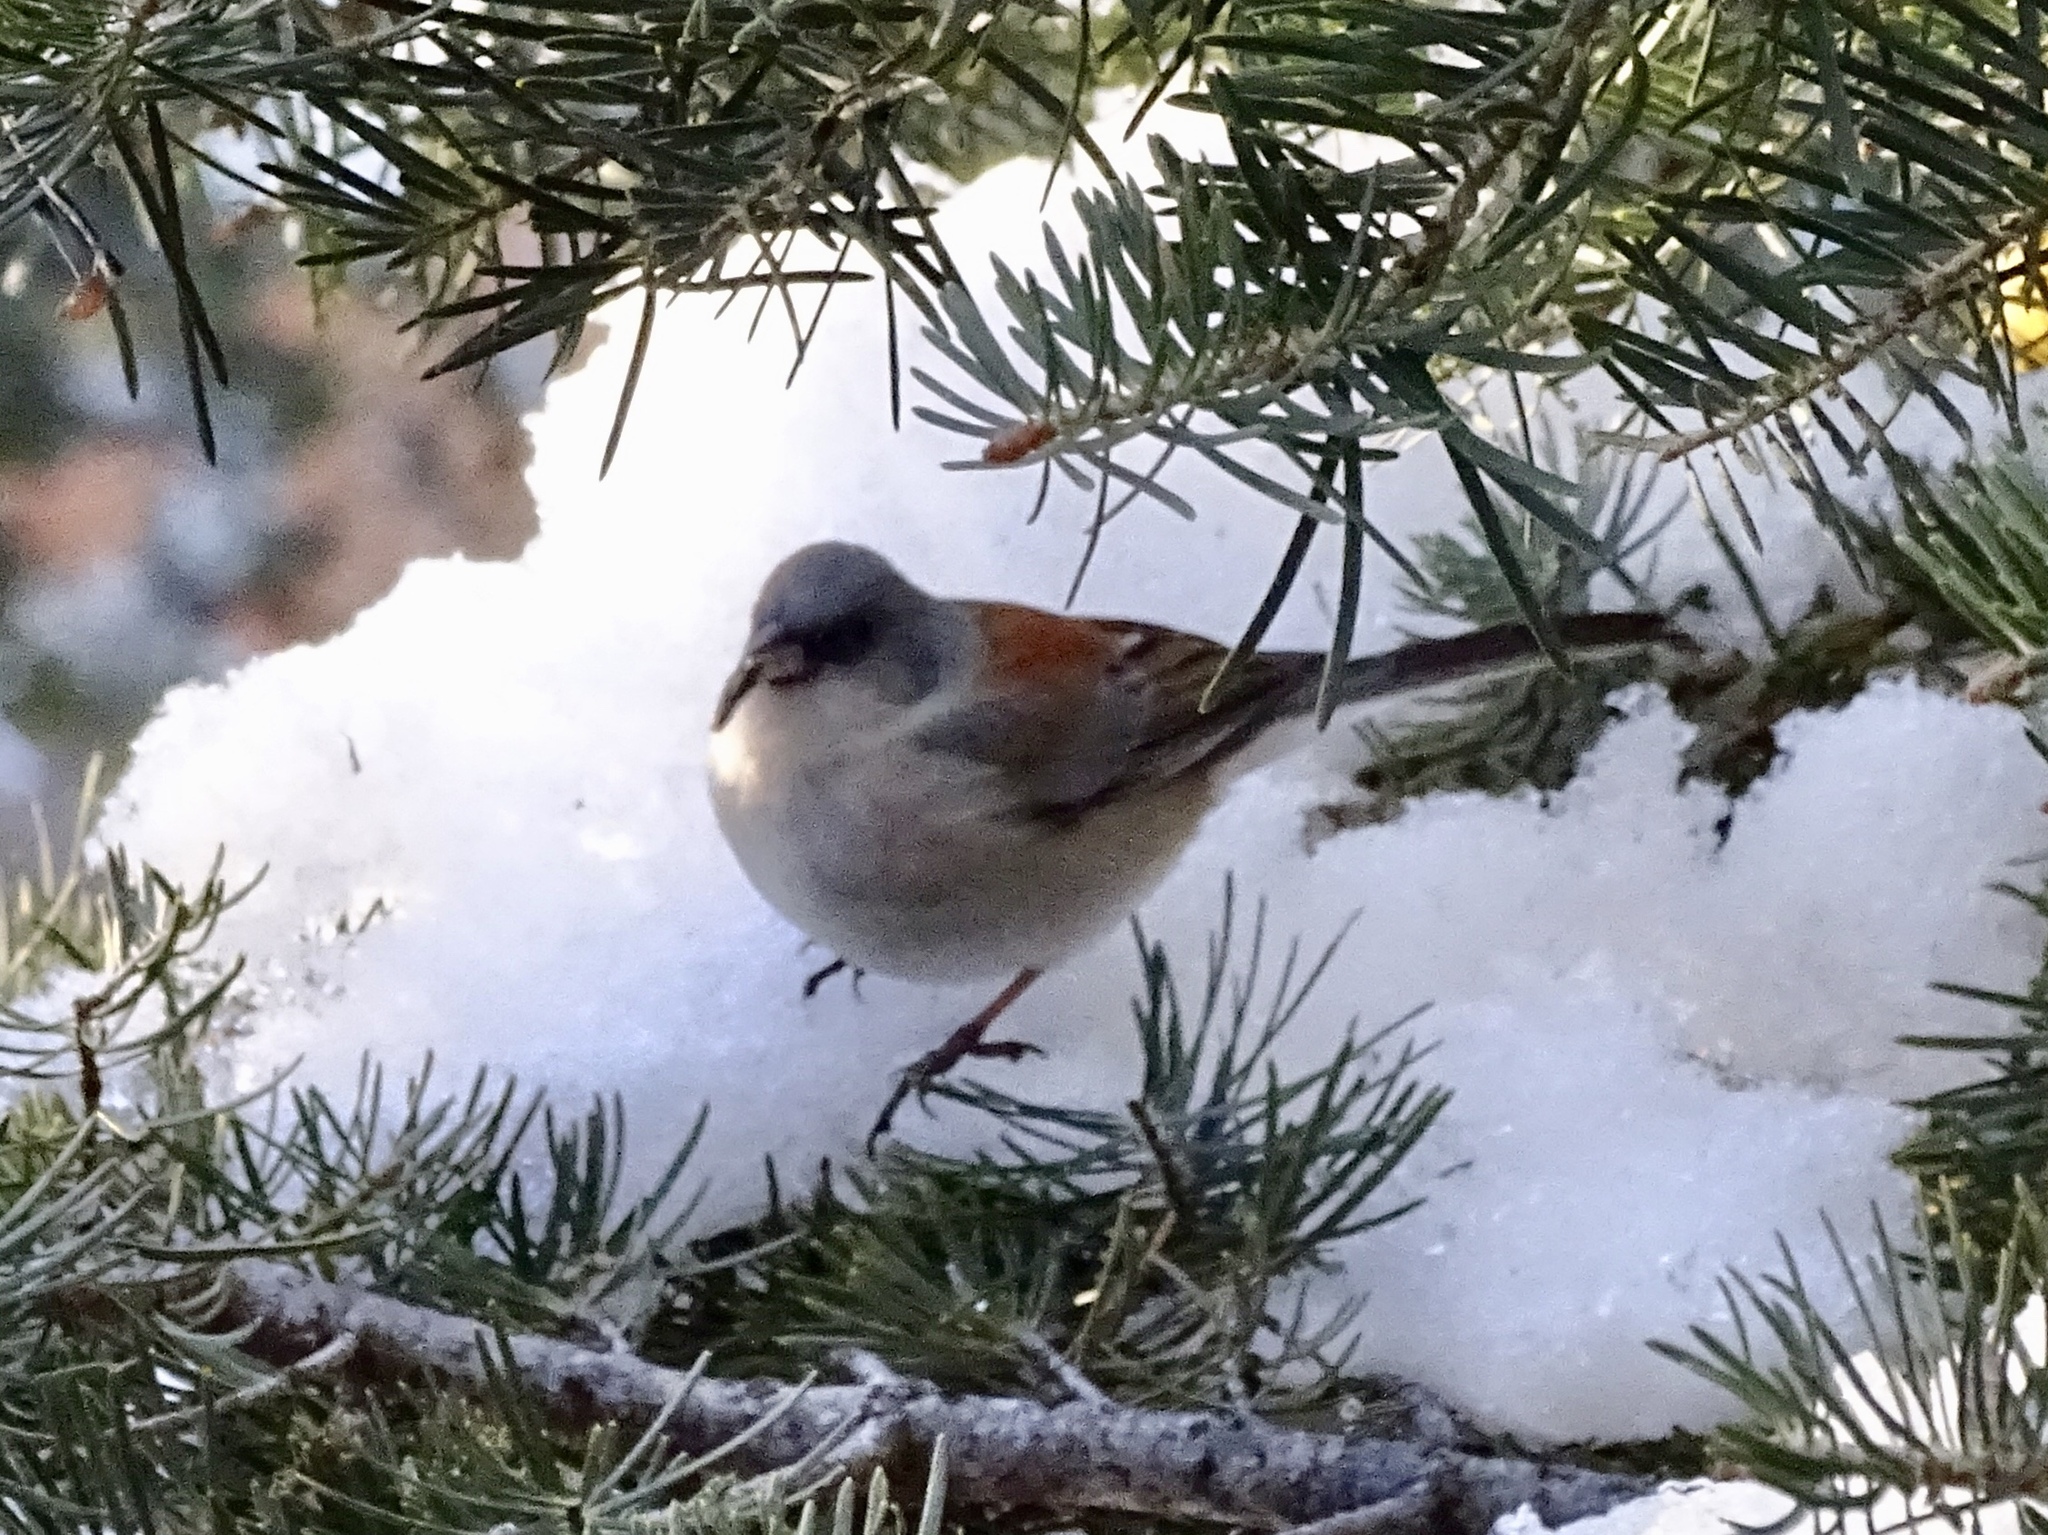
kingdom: Animalia
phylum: Chordata
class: Aves
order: Passeriformes
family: Passerellidae
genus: Junco
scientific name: Junco hyemalis
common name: Dark-eyed junco
